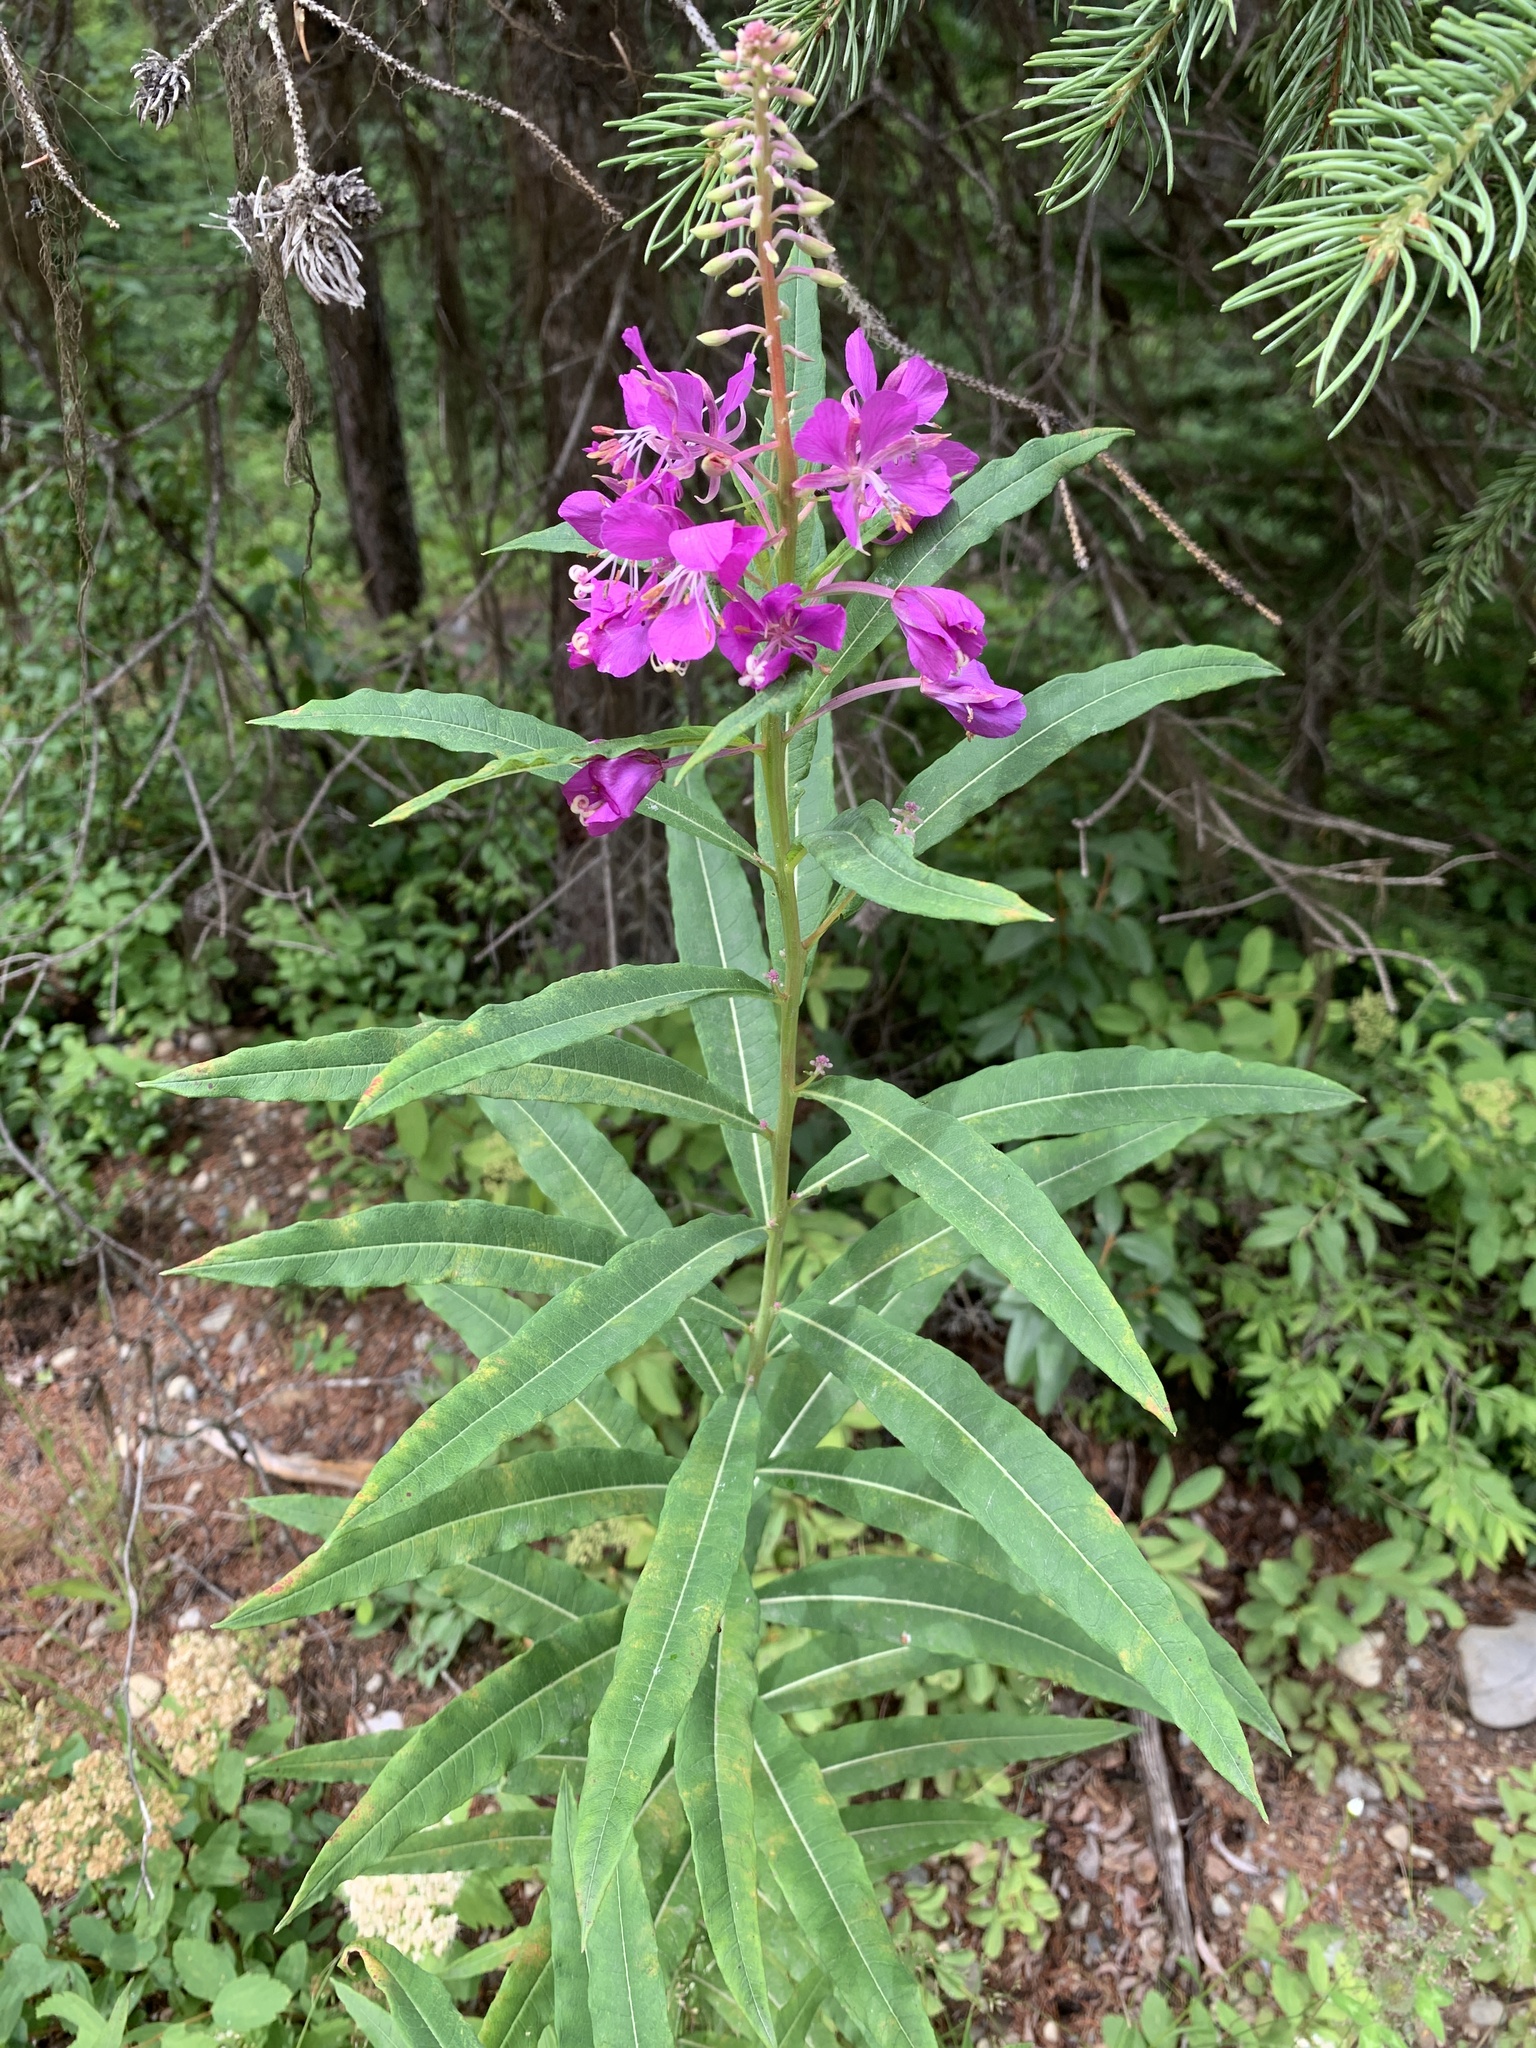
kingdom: Plantae
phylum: Tracheophyta
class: Magnoliopsida
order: Myrtales
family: Onagraceae
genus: Chamaenerion
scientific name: Chamaenerion angustifolium
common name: Fireweed
